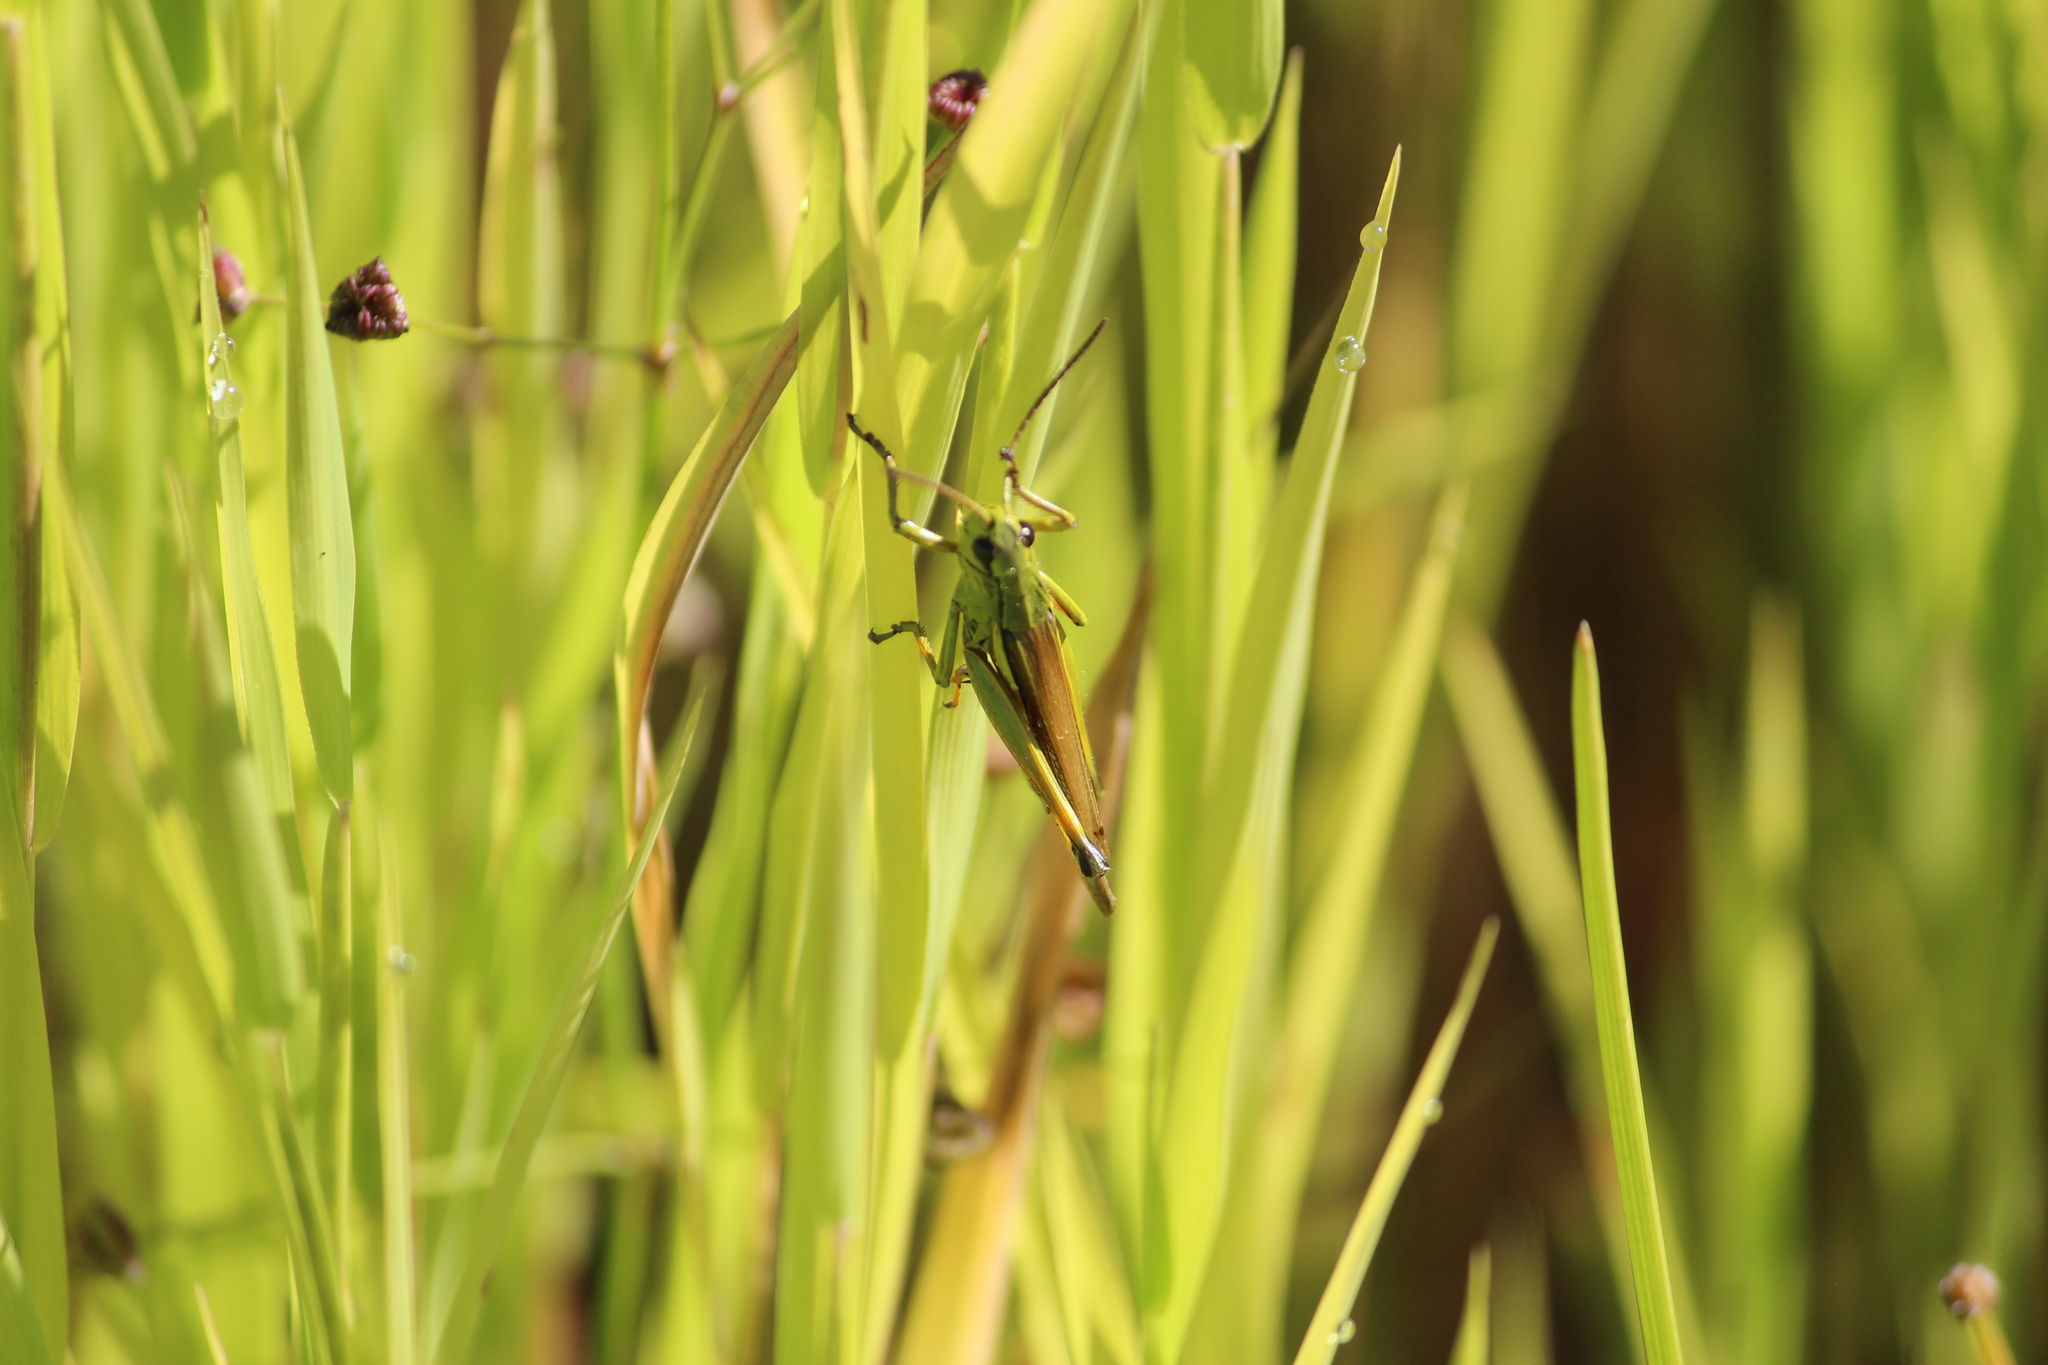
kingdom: Animalia
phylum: Arthropoda
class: Insecta
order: Orthoptera
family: Acrididae
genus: Stethophyma
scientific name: Stethophyma grossum
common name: Large marsh grasshopper
